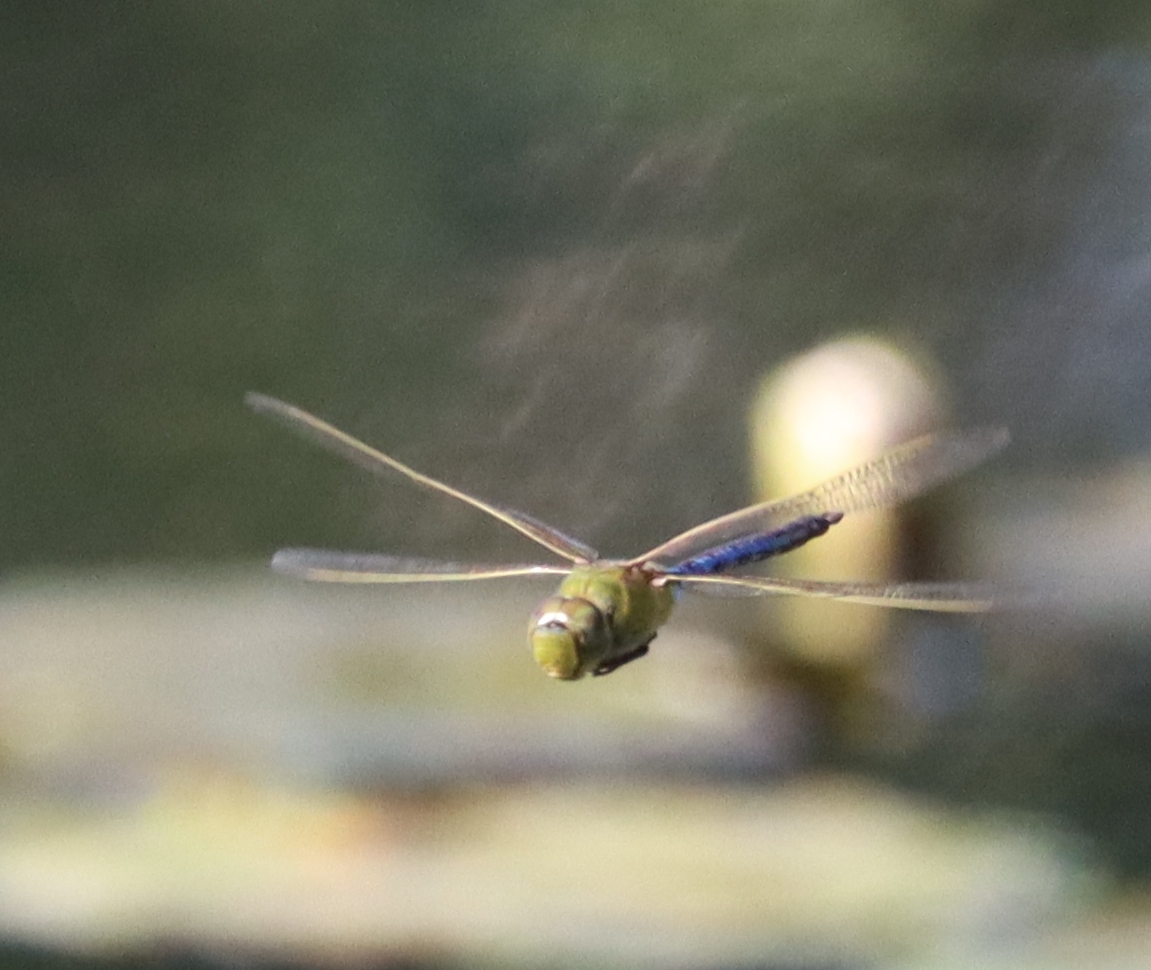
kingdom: Animalia
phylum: Arthropoda
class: Insecta
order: Odonata
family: Aeshnidae
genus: Anax
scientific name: Anax junius
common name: Common green darner
